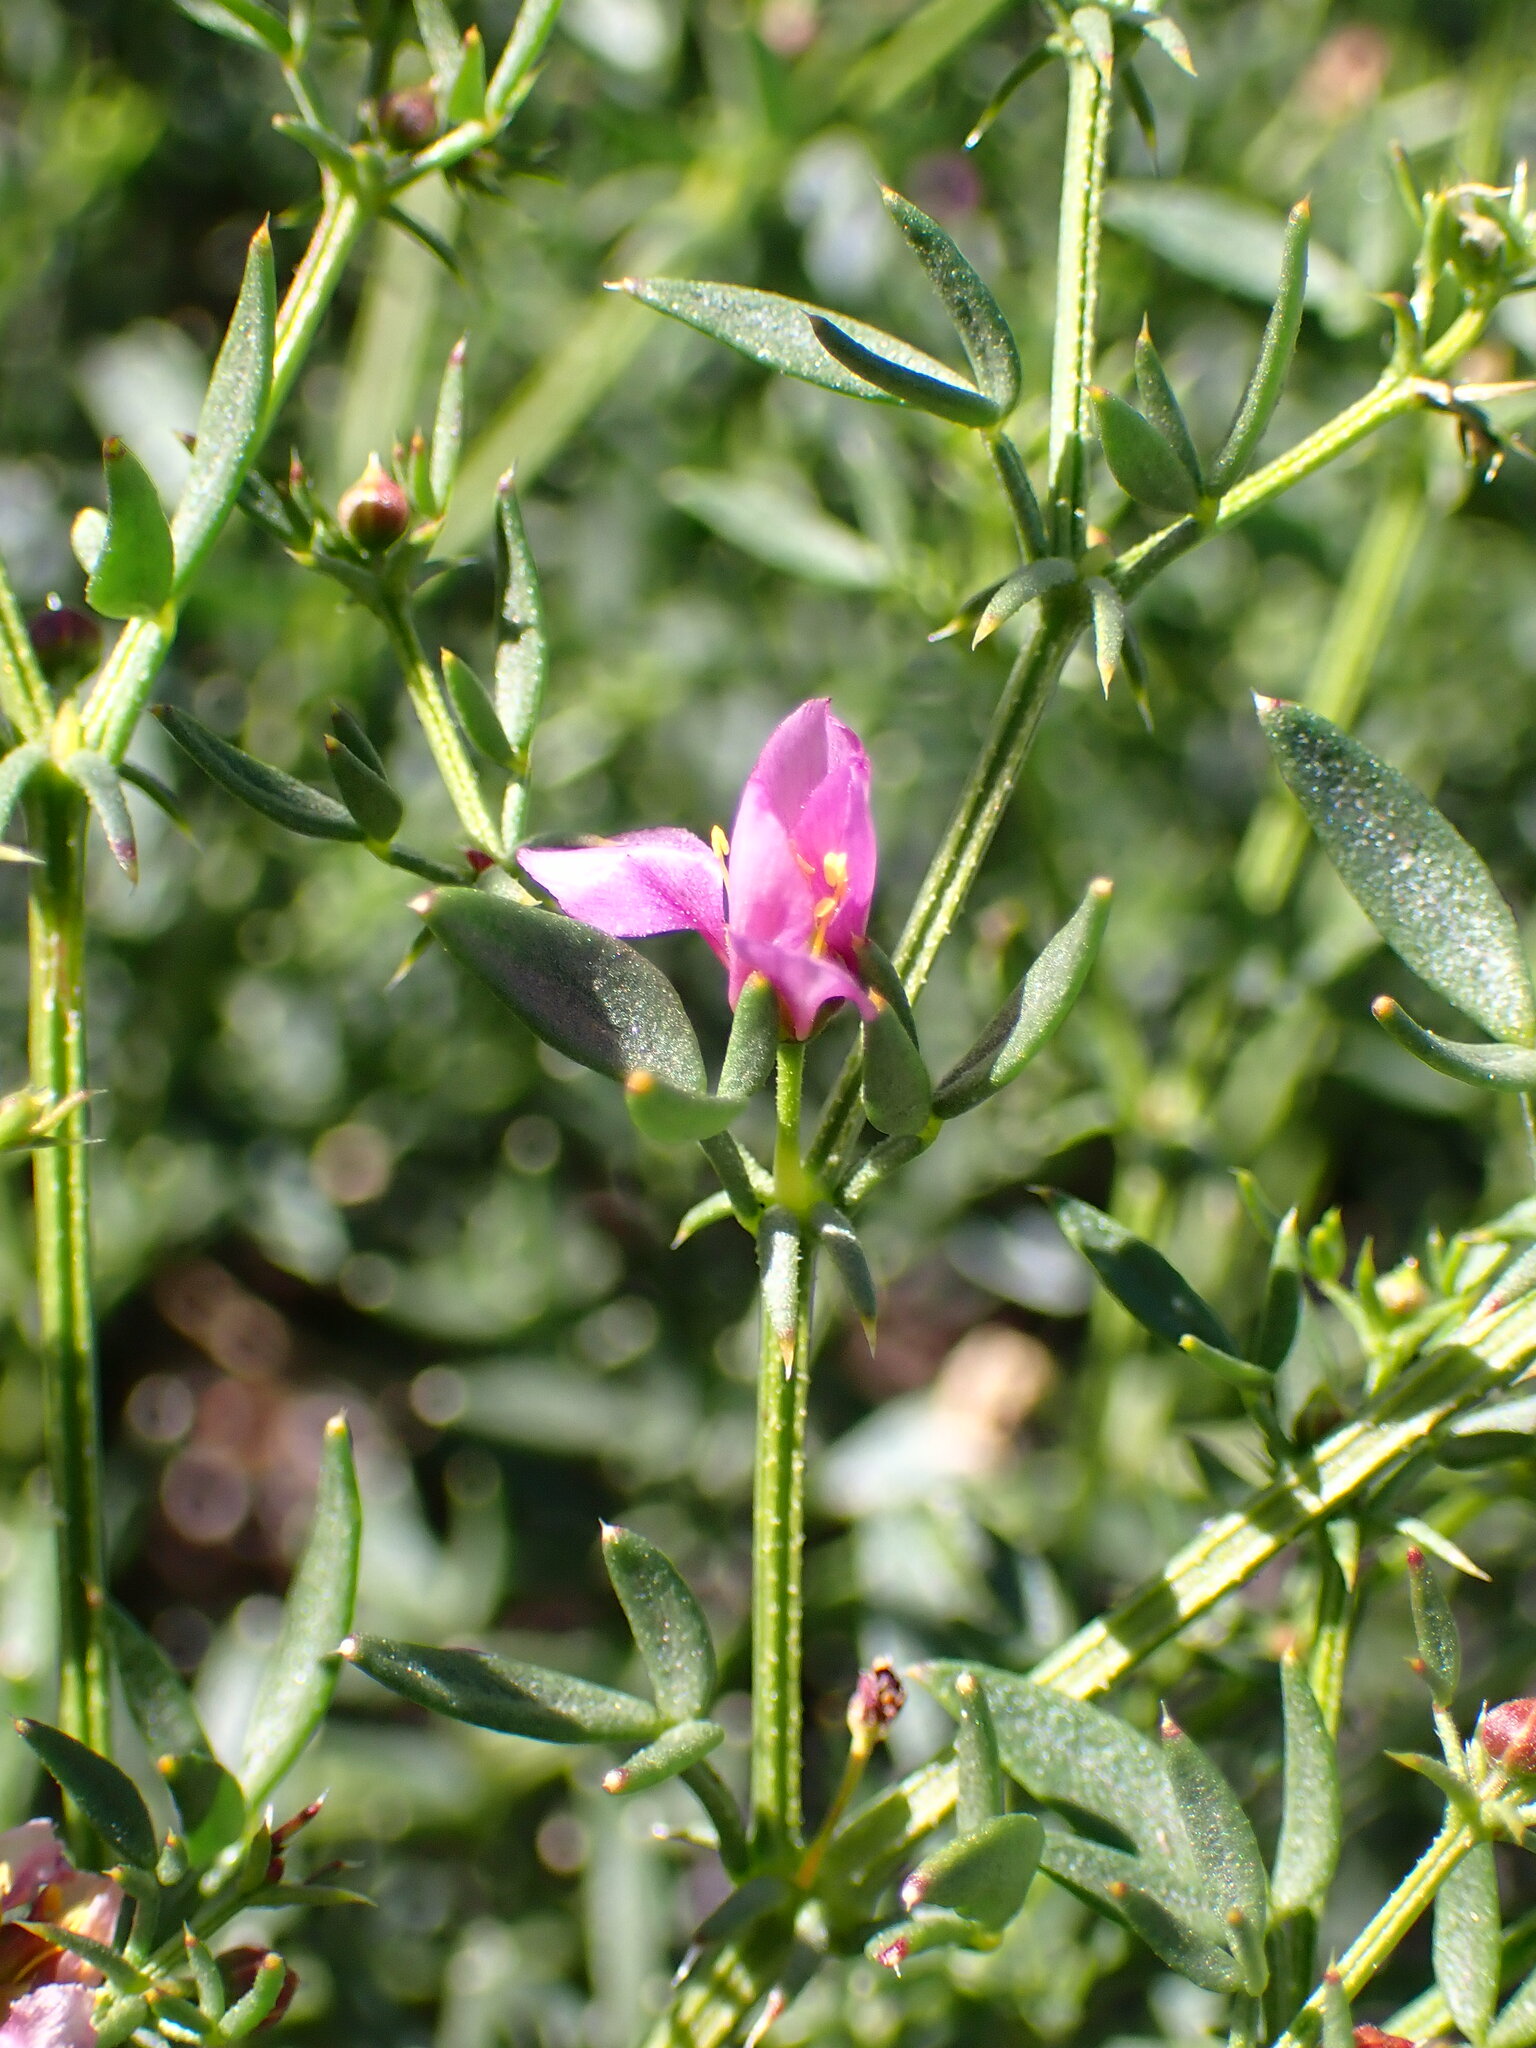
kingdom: Plantae
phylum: Tracheophyta
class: Magnoliopsida
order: Zygophyllales
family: Zygophyllaceae
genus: Fagonia
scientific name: Fagonia laevis
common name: California fagonbush
